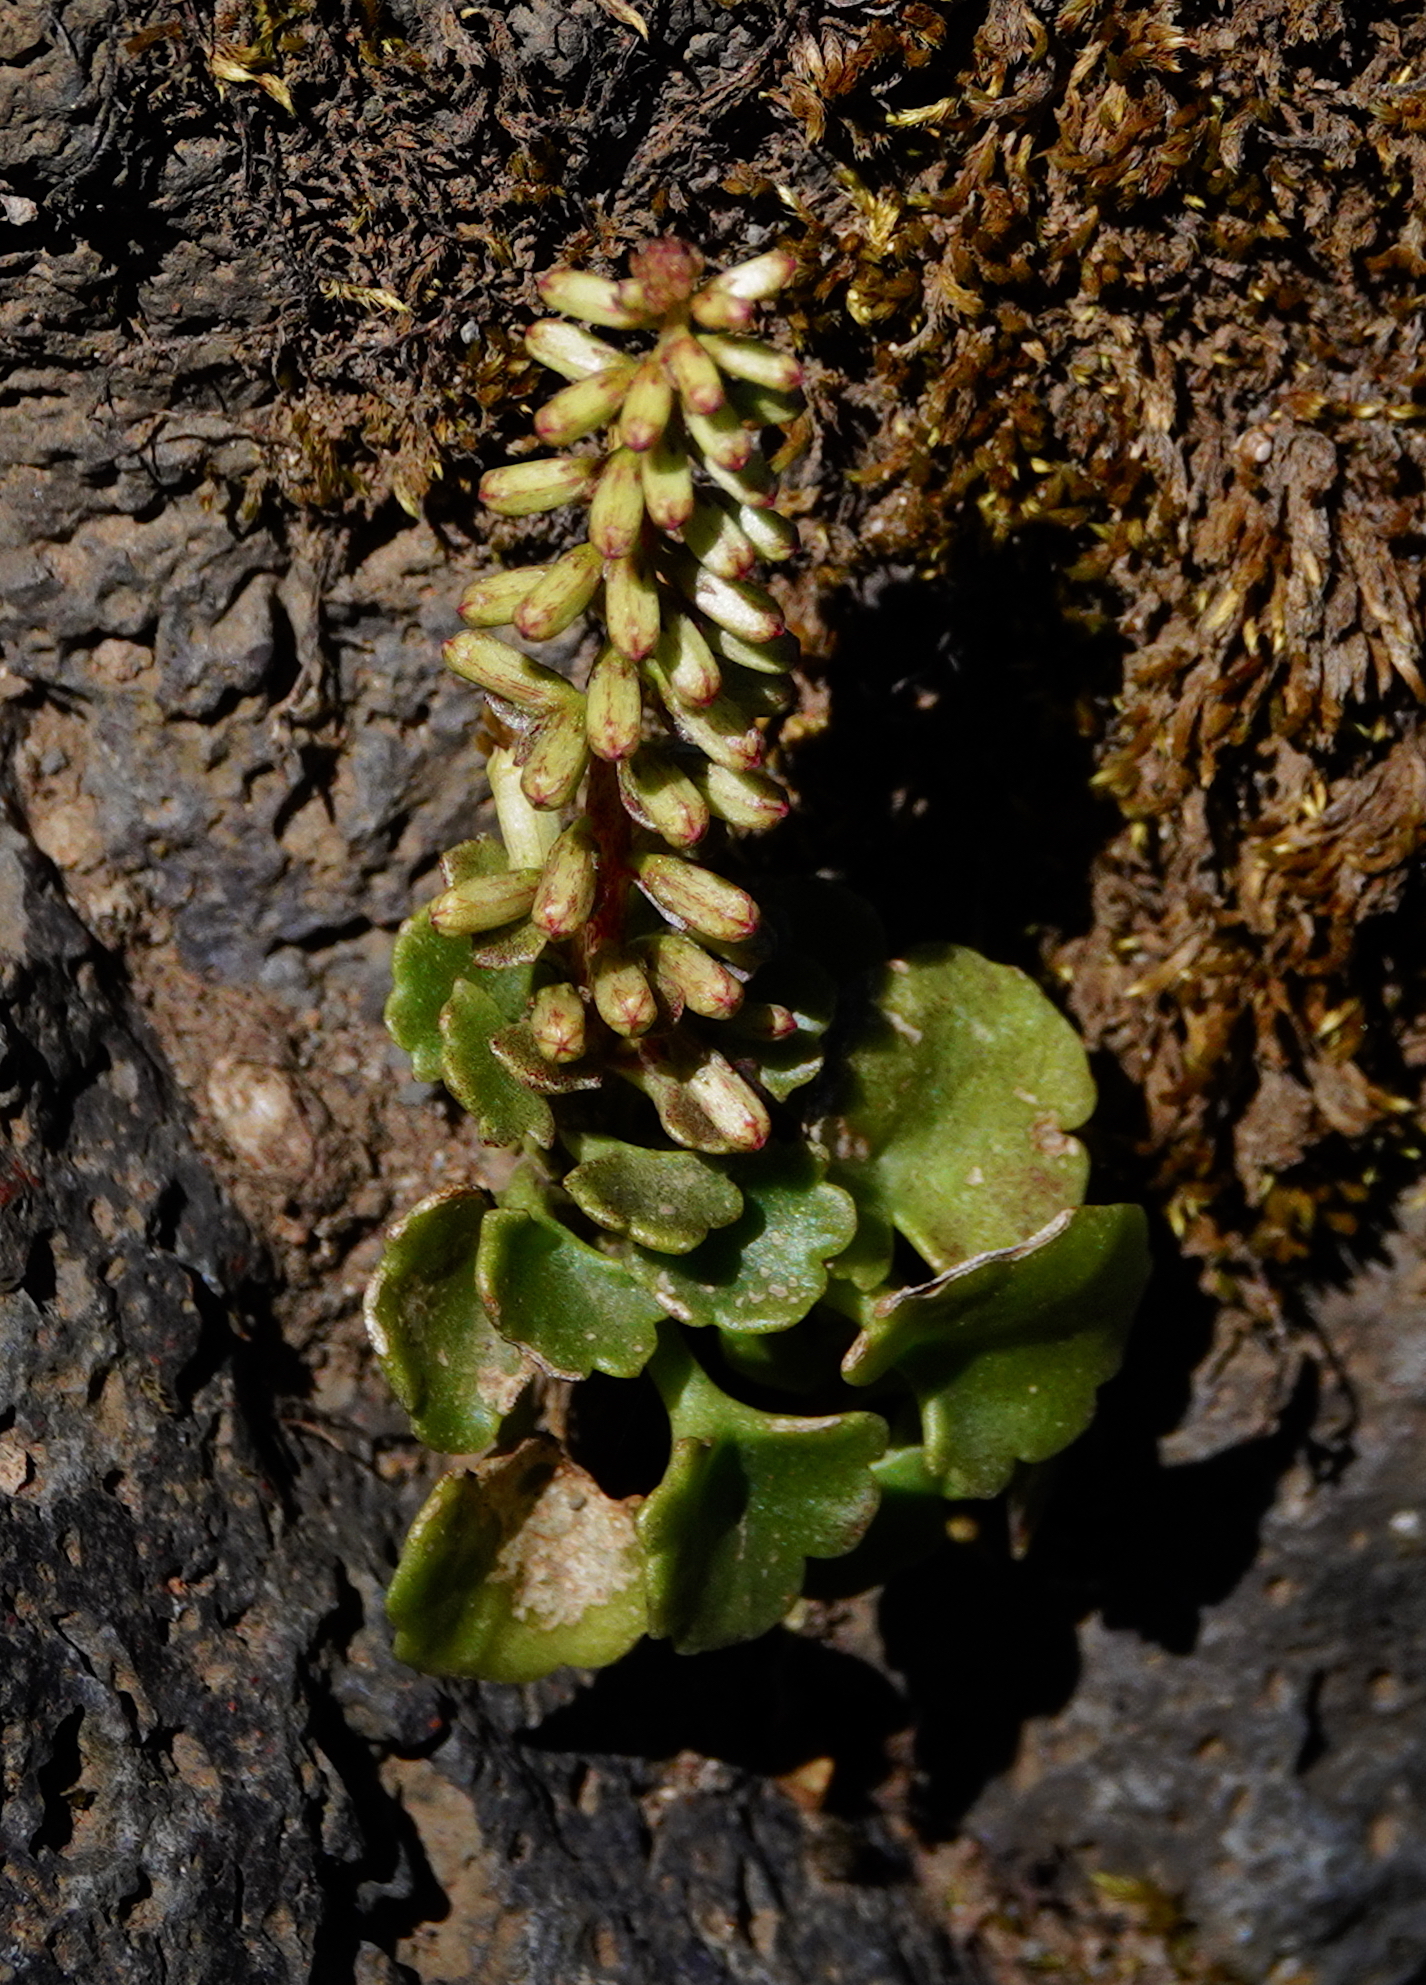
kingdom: Plantae
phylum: Tracheophyta
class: Magnoliopsida
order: Saxifragales
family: Crassulaceae
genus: Umbilicus
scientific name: Umbilicus rupestris
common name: Navelwort
